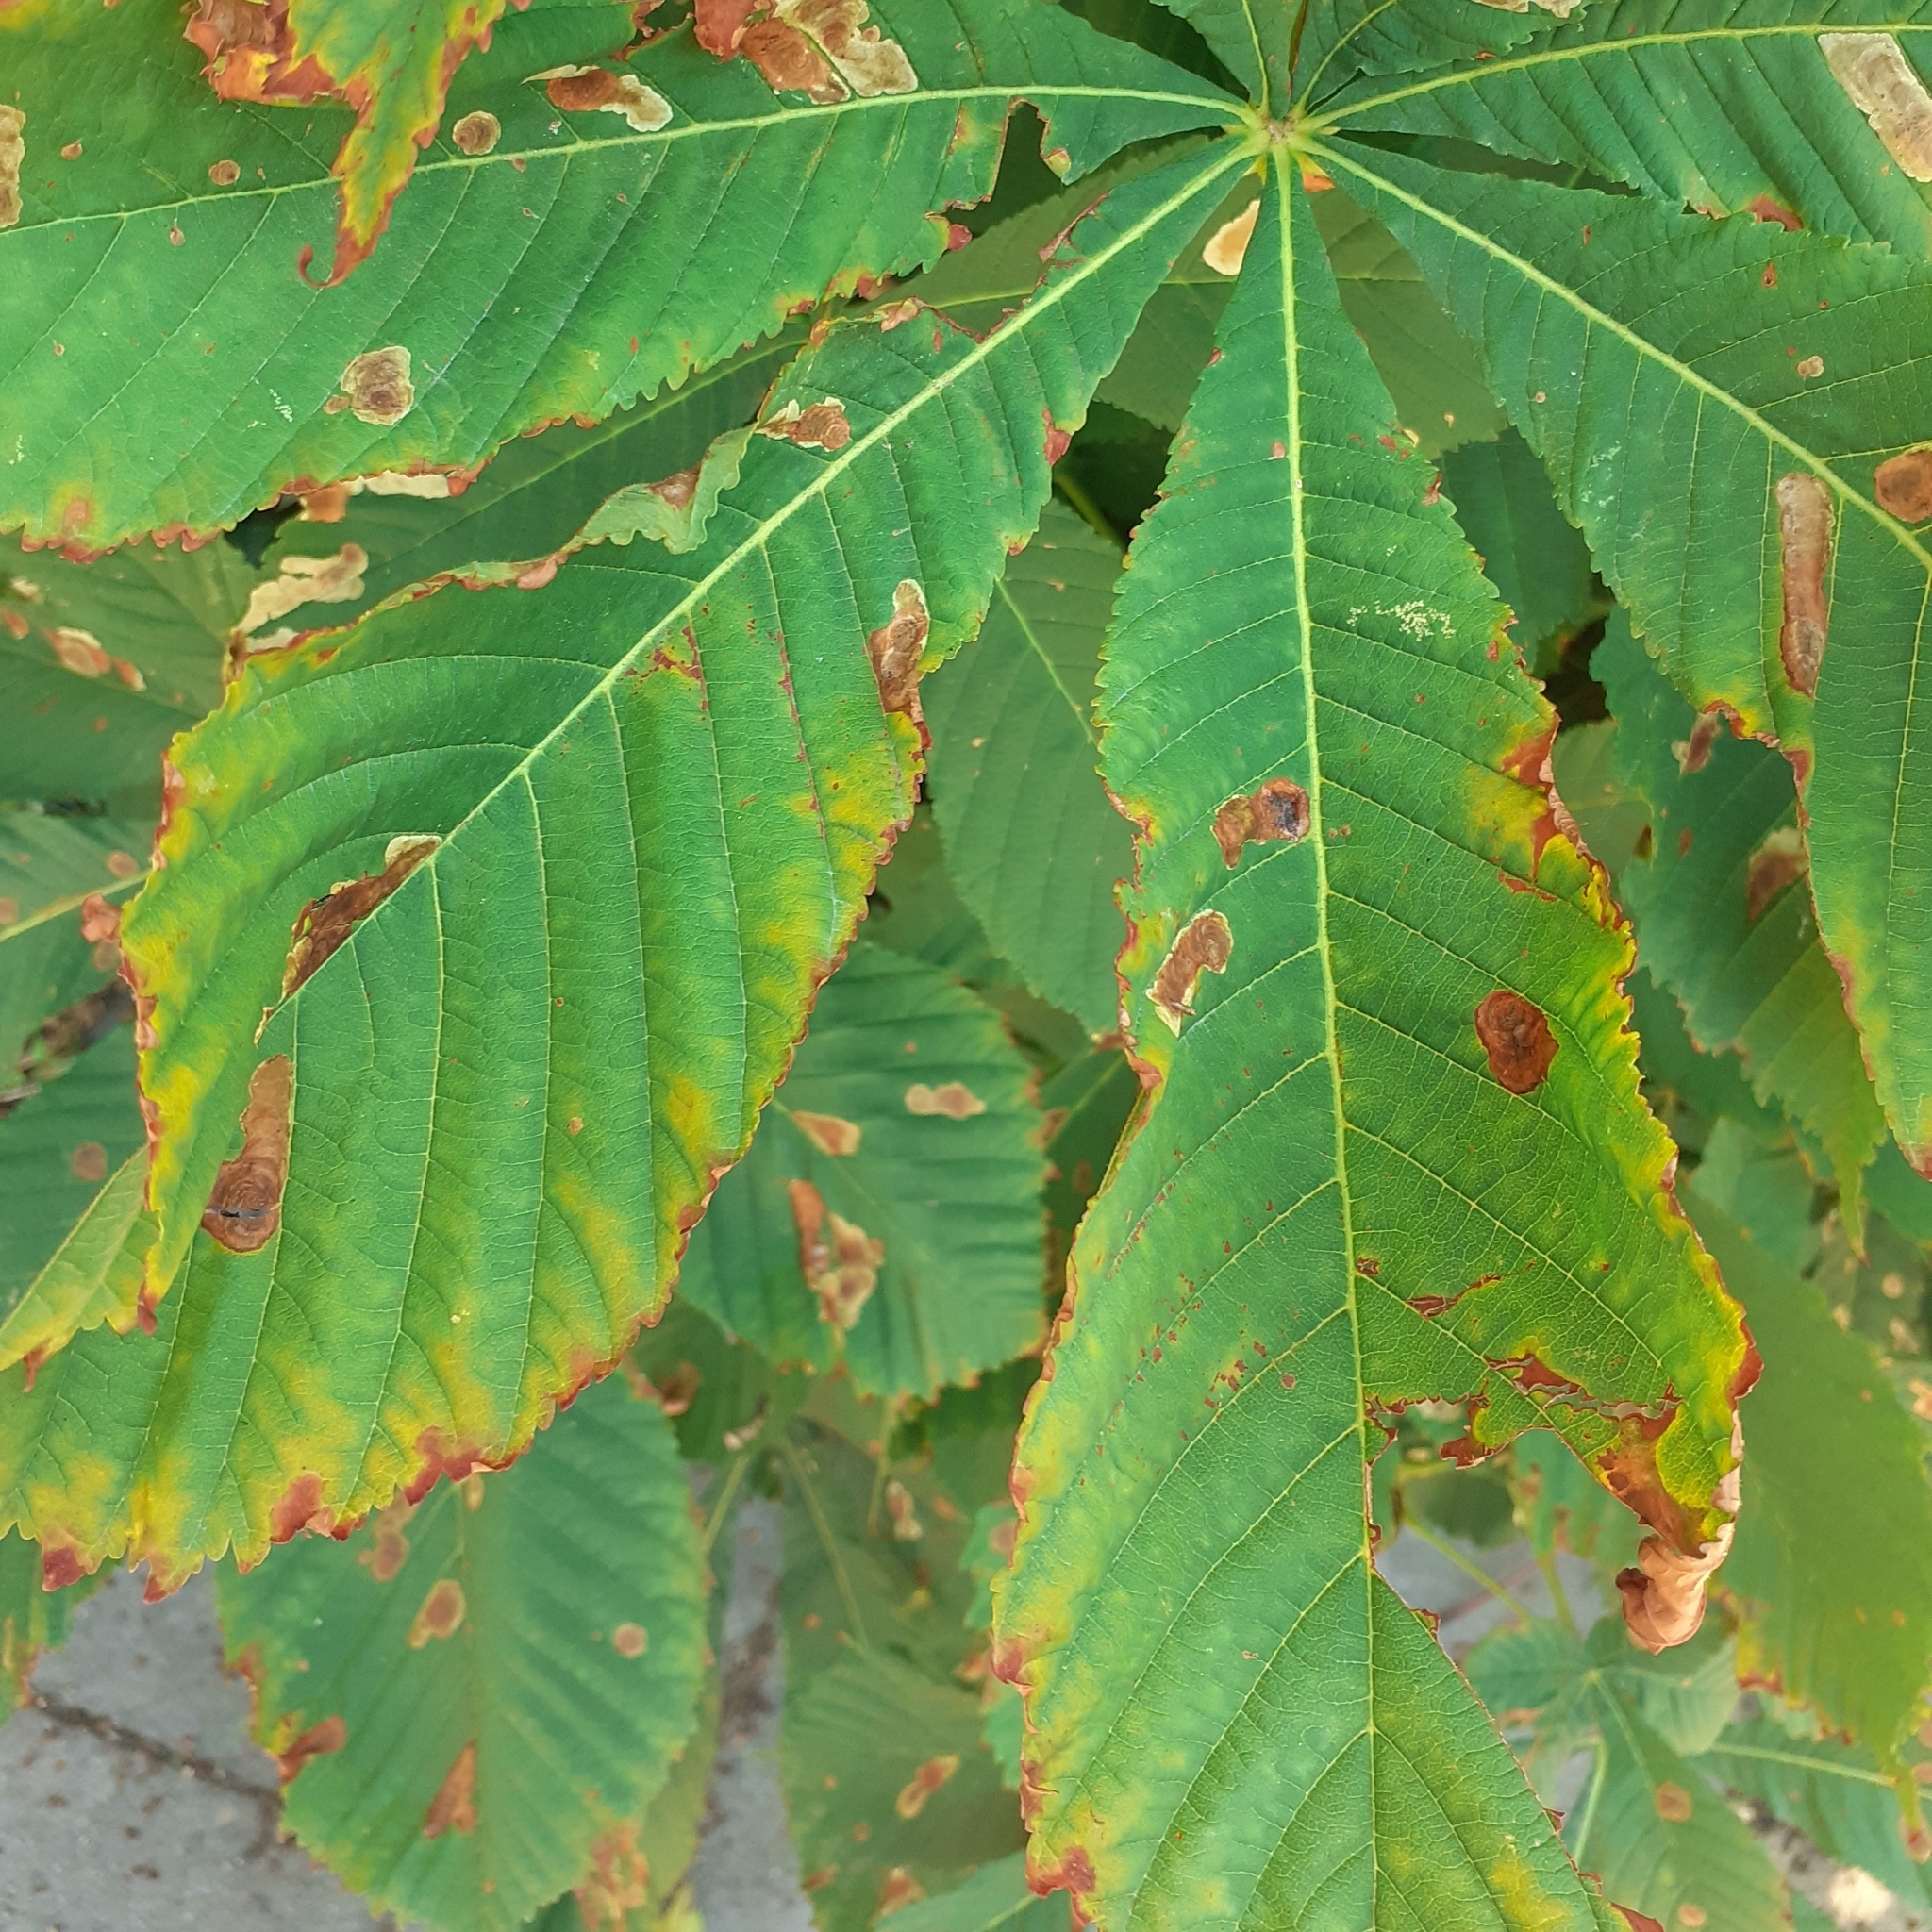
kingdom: Animalia
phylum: Arthropoda
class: Insecta
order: Lepidoptera
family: Gracillariidae
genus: Cameraria
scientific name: Cameraria ohridella
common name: Horse-chestnut leaf-miner
